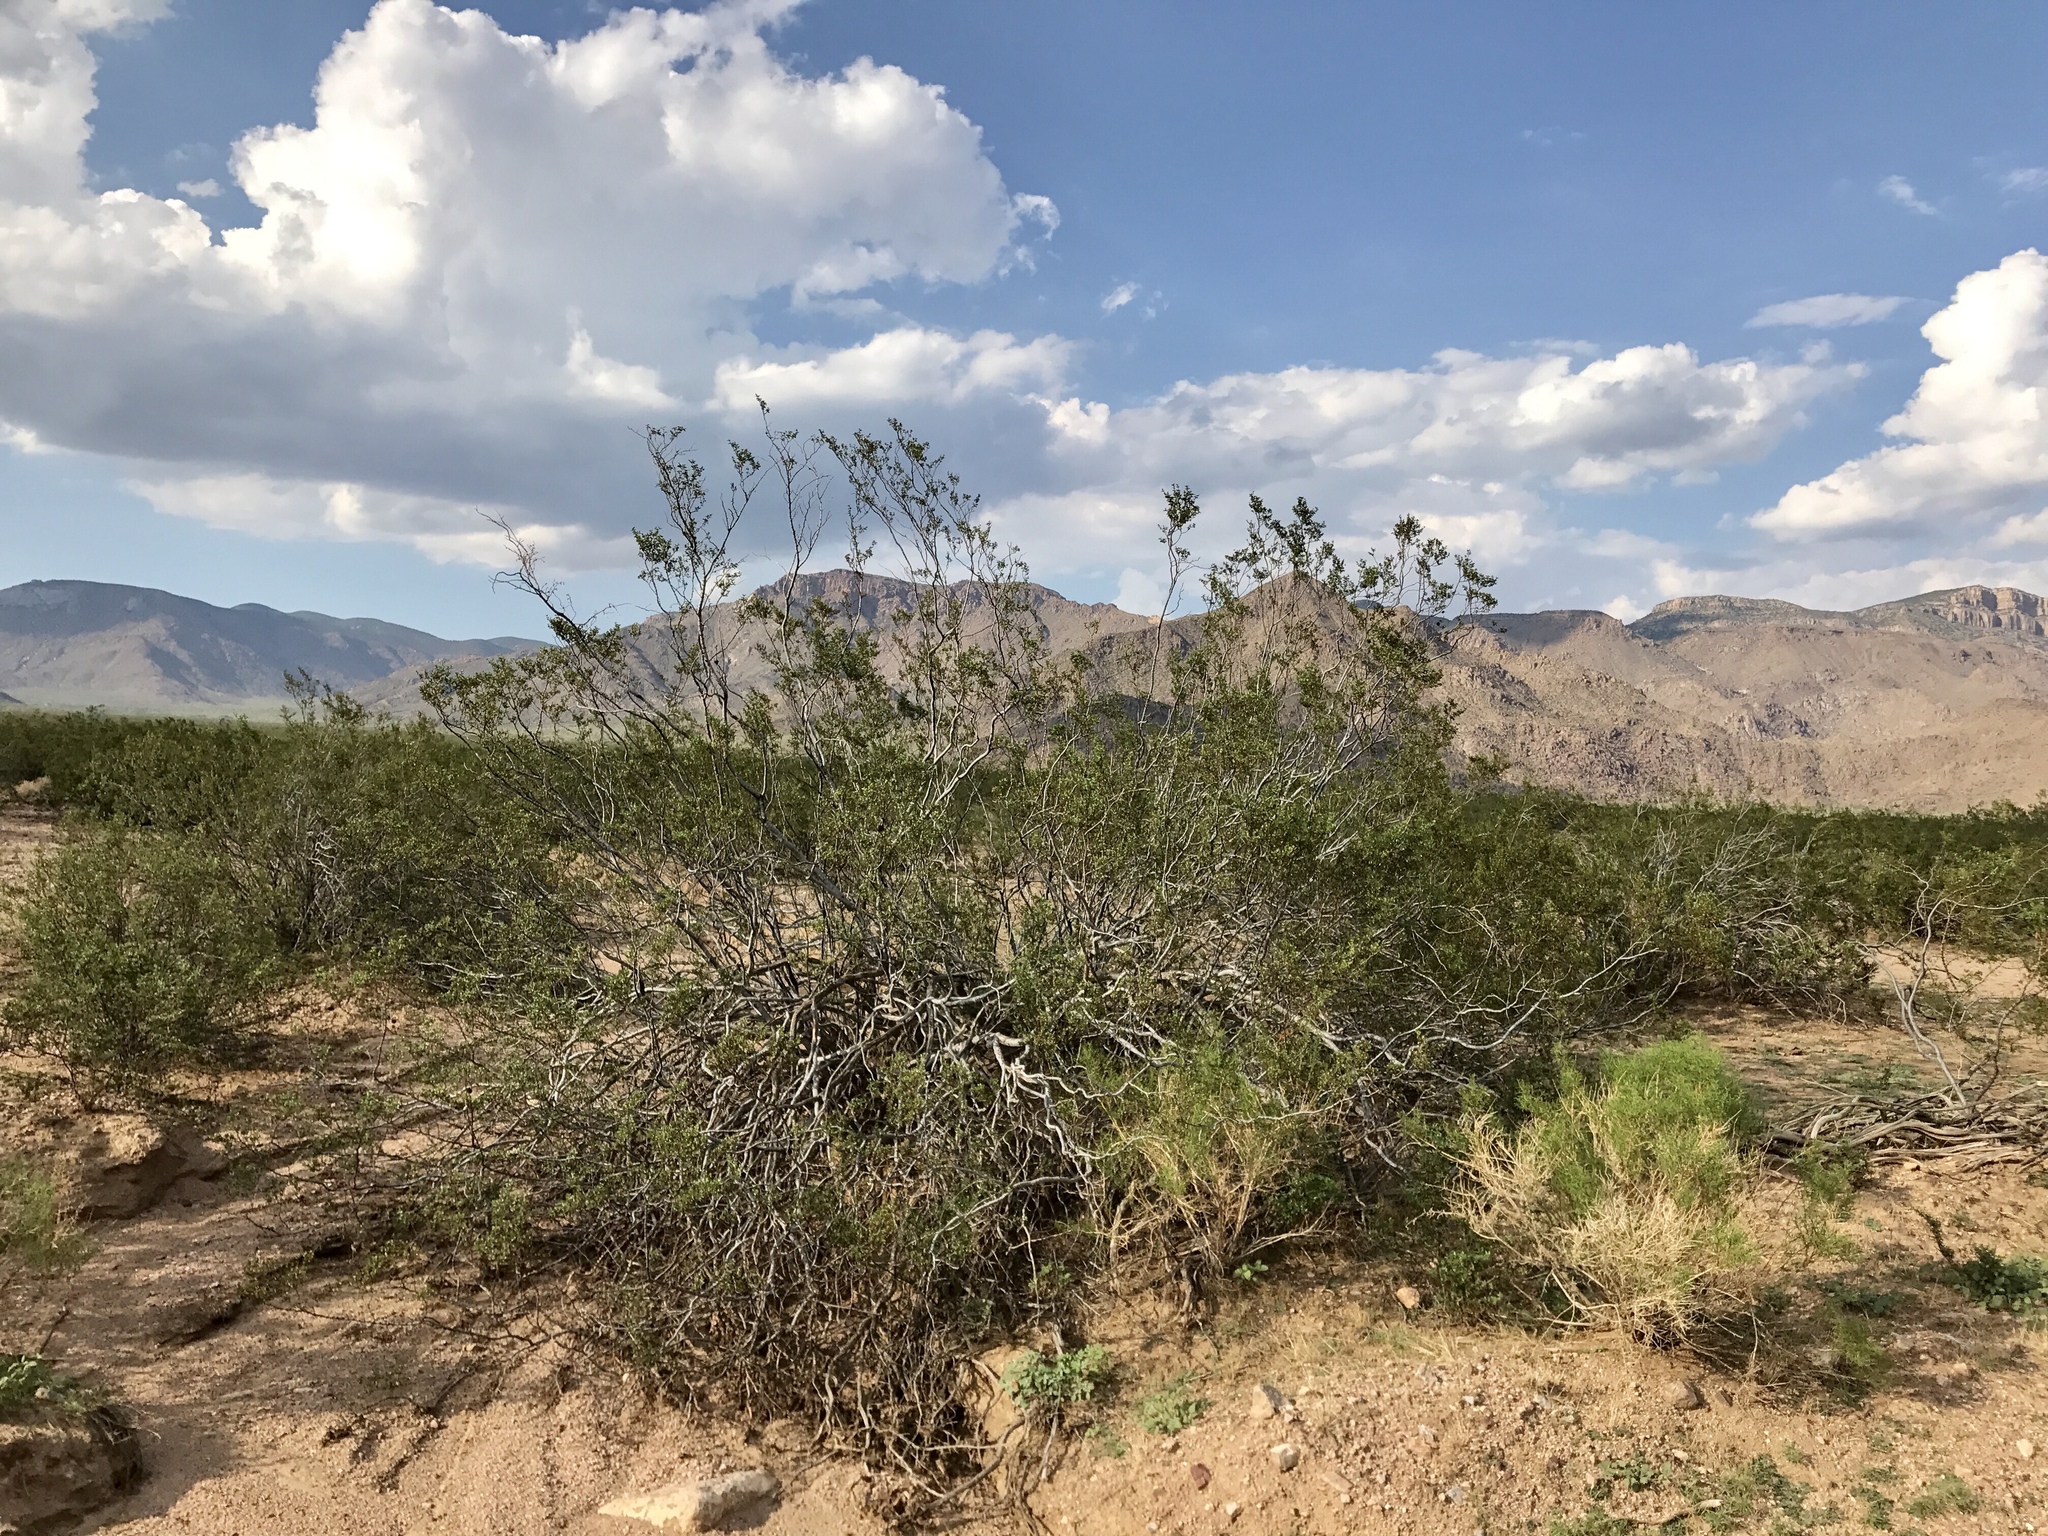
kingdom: Plantae
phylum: Tracheophyta
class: Magnoliopsida
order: Zygophyllales
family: Zygophyllaceae
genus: Larrea
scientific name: Larrea tridentata
